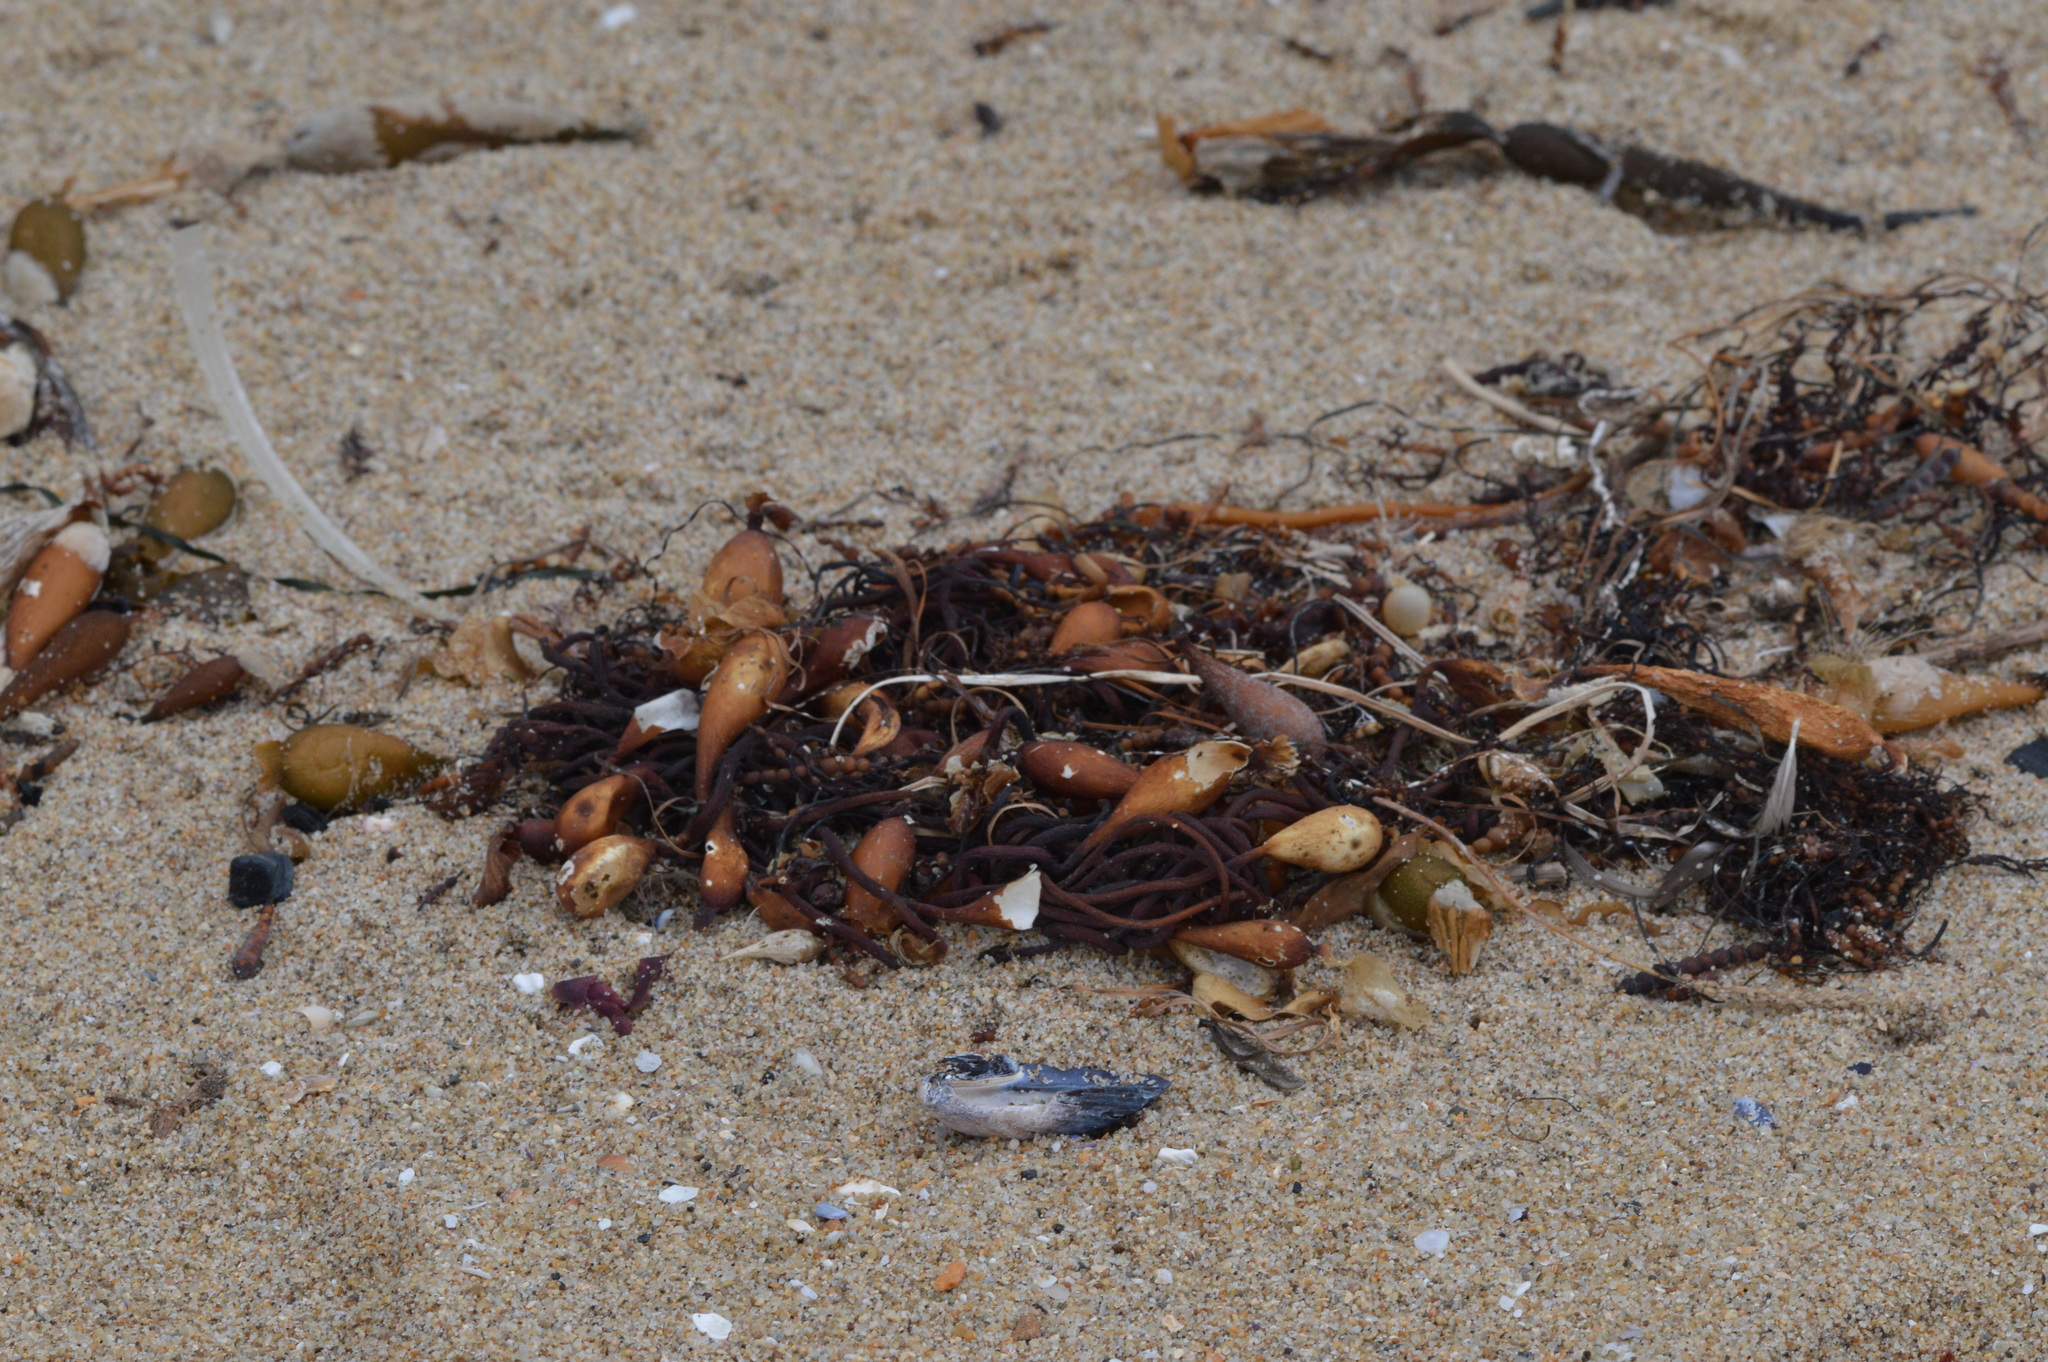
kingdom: Chromista
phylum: Ochrophyta
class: Phaeophyceae
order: Laminariales
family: Laminariaceae
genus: Macrocystis
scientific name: Macrocystis pyrifera
